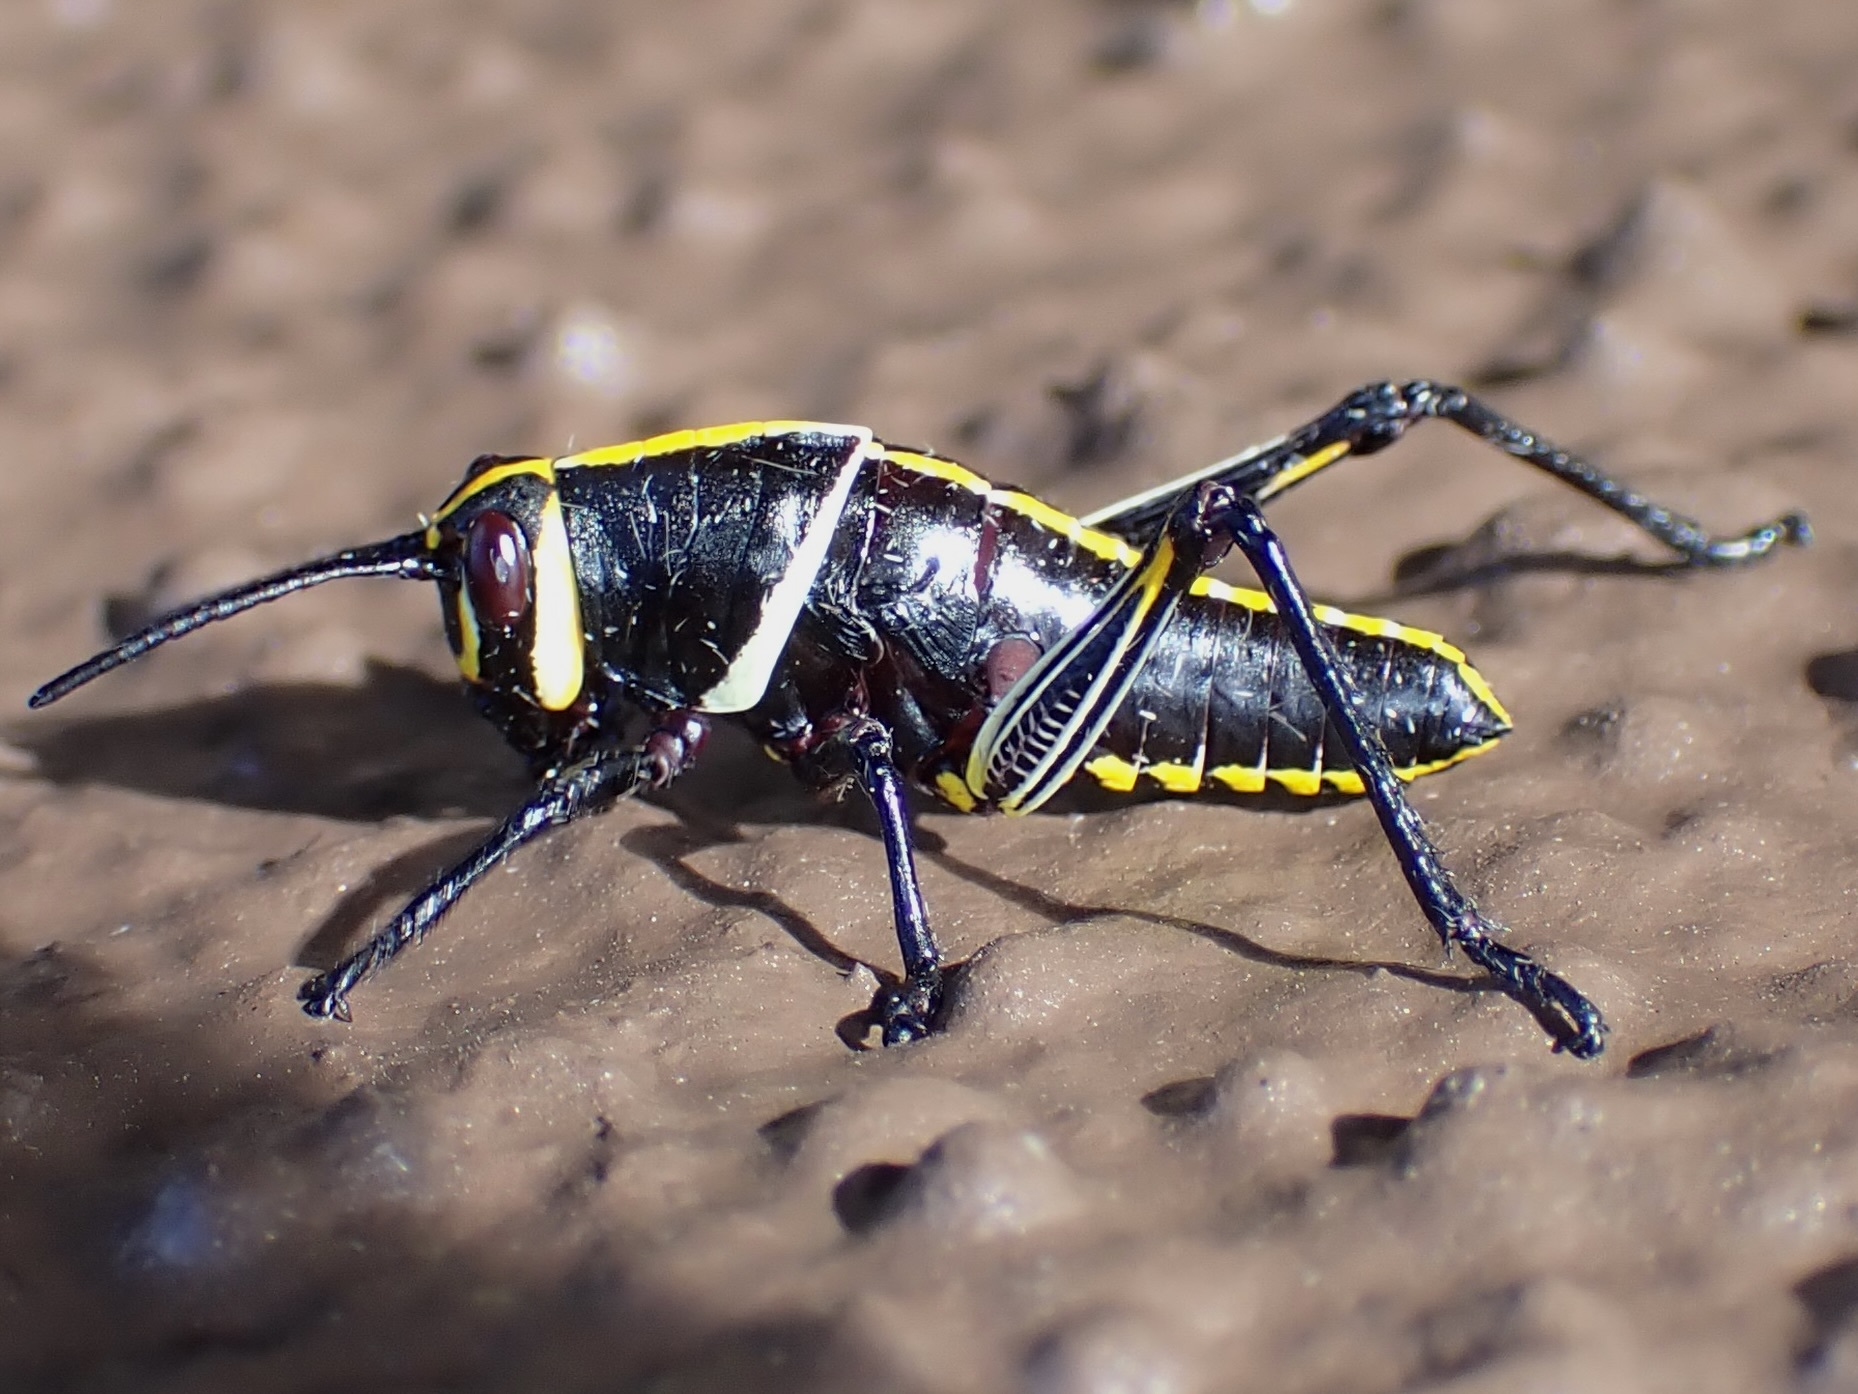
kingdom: Animalia
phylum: Arthropoda
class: Insecta
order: Orthoptera
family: Romaleidae
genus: Romalea
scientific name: Romalea
